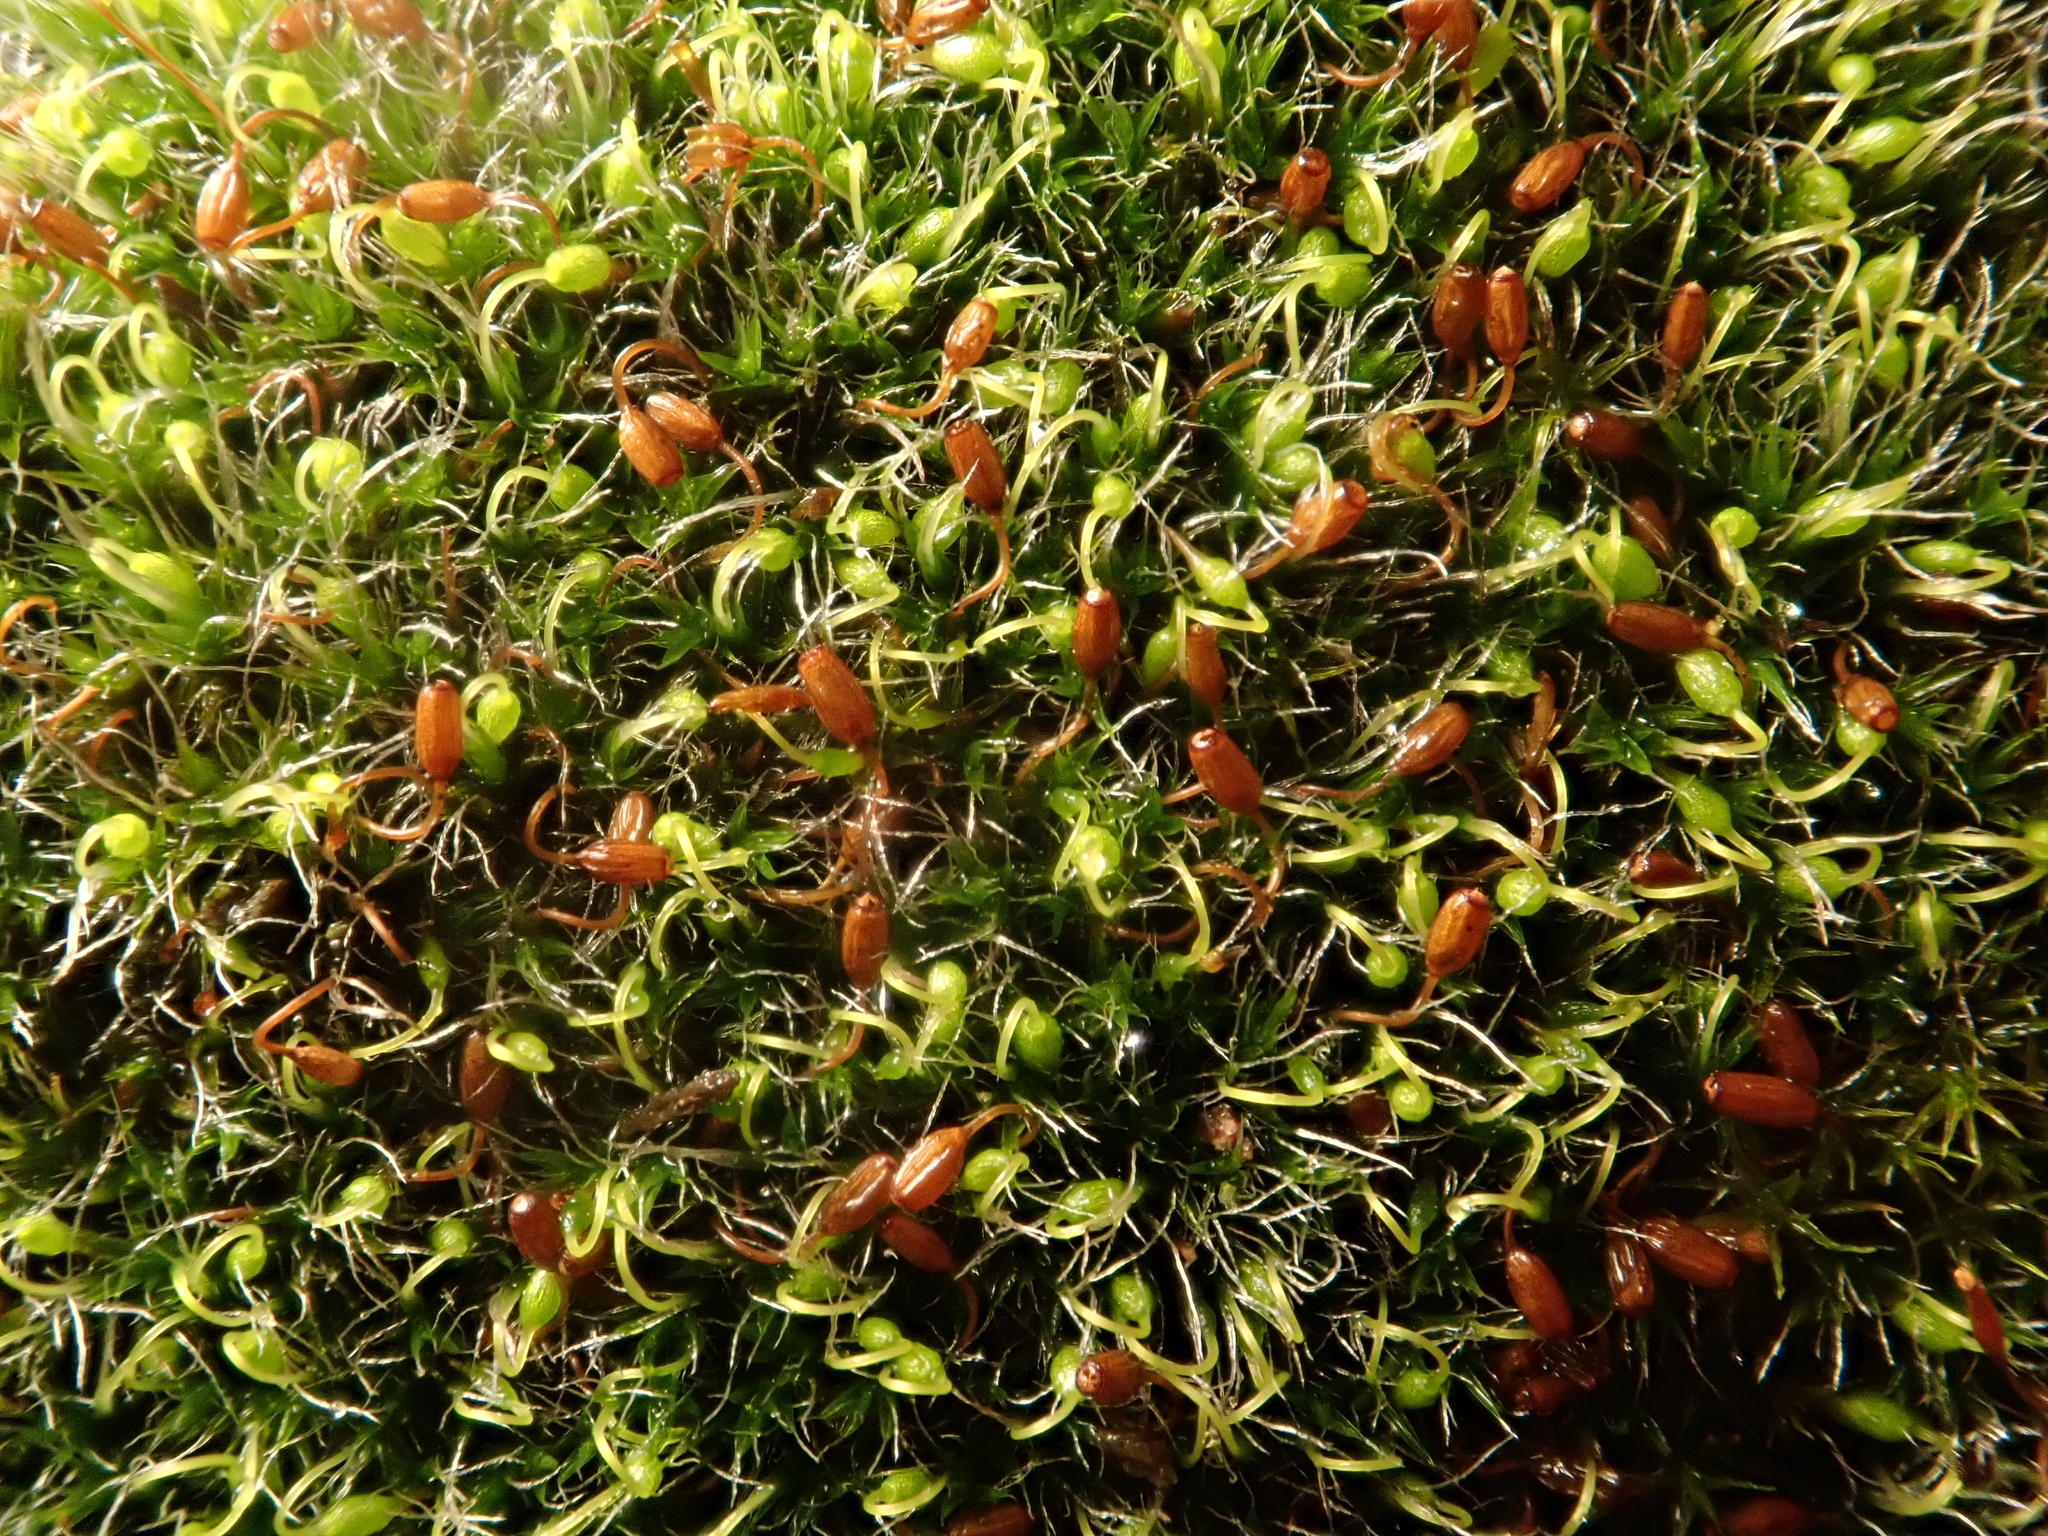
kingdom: Plantae
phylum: Bryophyta
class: Bryopsida
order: Grimmiales
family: Grimmiaceae
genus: Grimmia
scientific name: Grimmia pulvinata
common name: Grey-cushioned grimmia
